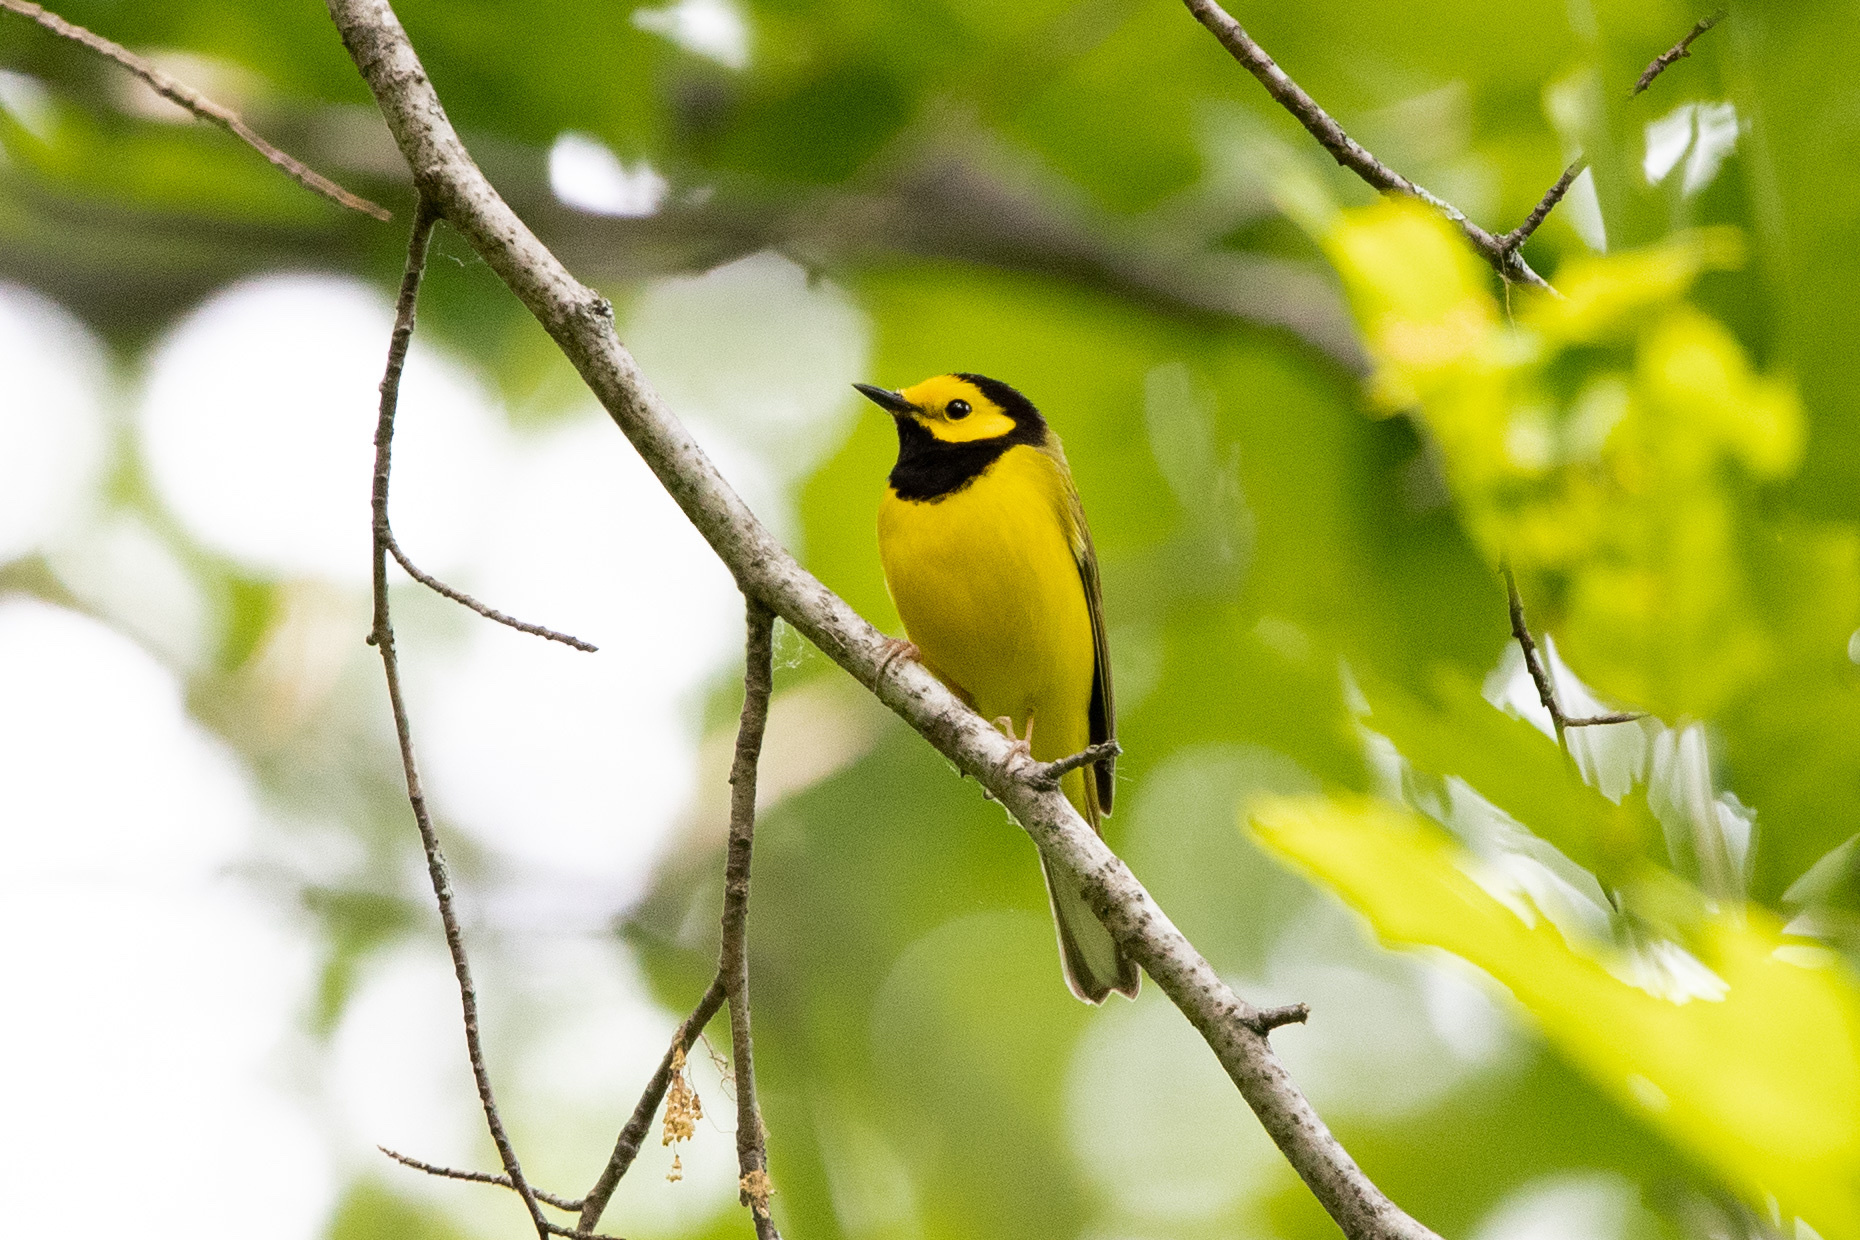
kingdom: Animalia
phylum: Chordata
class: Aves
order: Passeriformes
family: Parulidae
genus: Setophaga
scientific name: Setophaga citrina
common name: Hooded warbler
